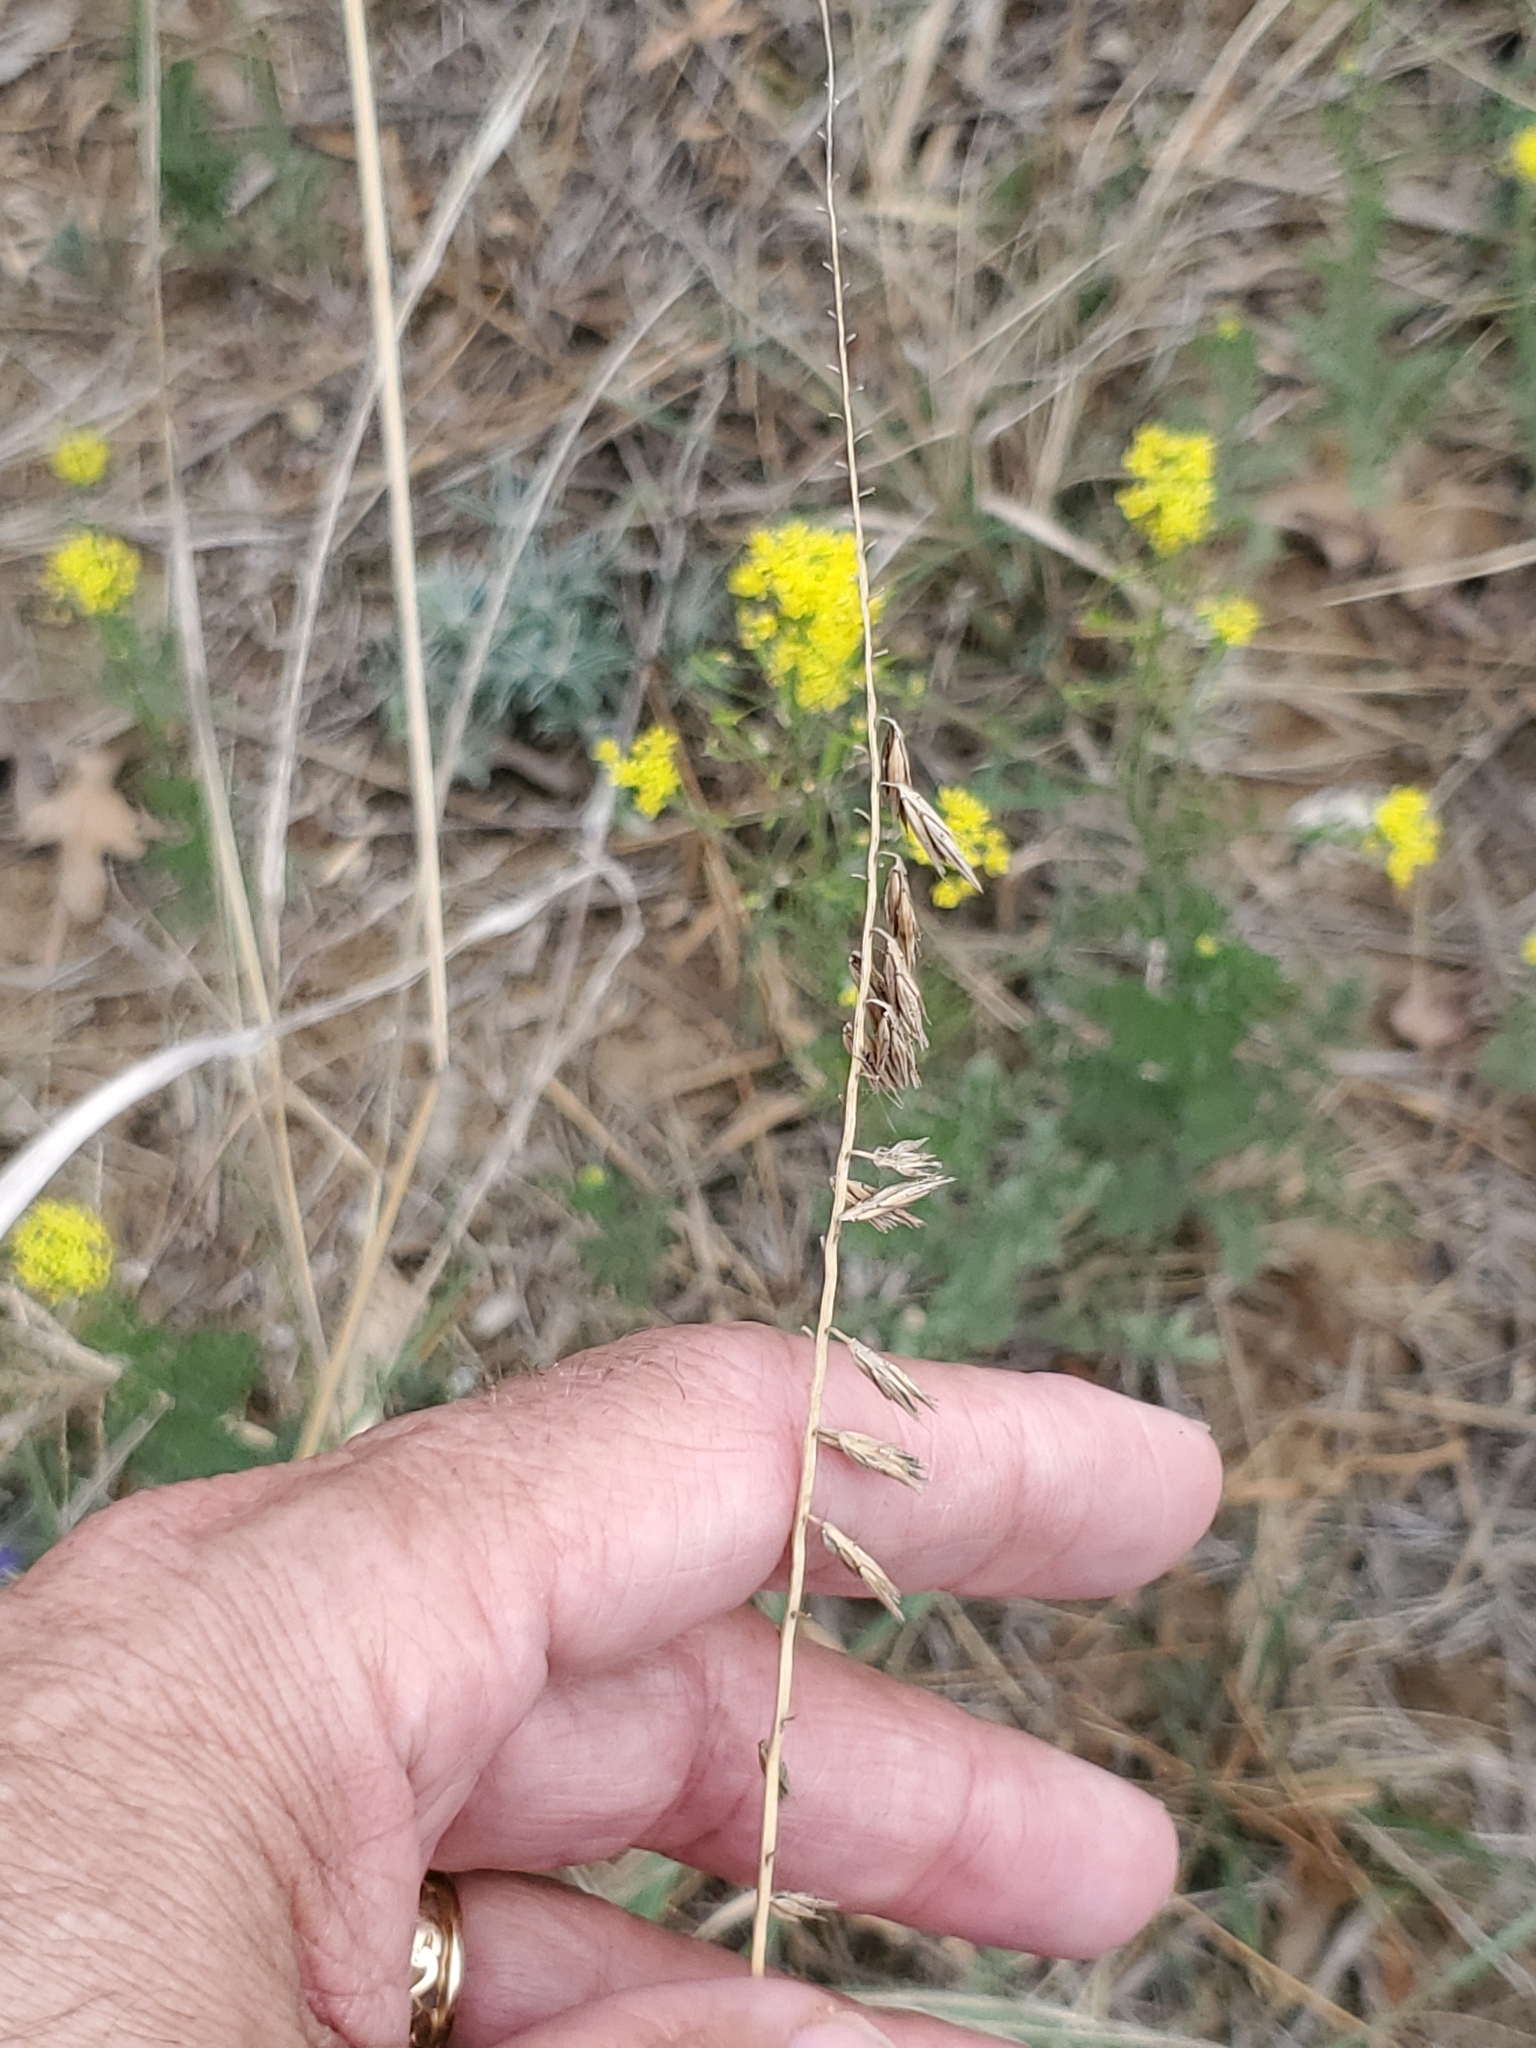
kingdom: Plantae
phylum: Tracheophyta
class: Liliopsida
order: Poales
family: Poaceae
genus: Bouteloua
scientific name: Bouteloua curtipendula
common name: Side-oats grama
